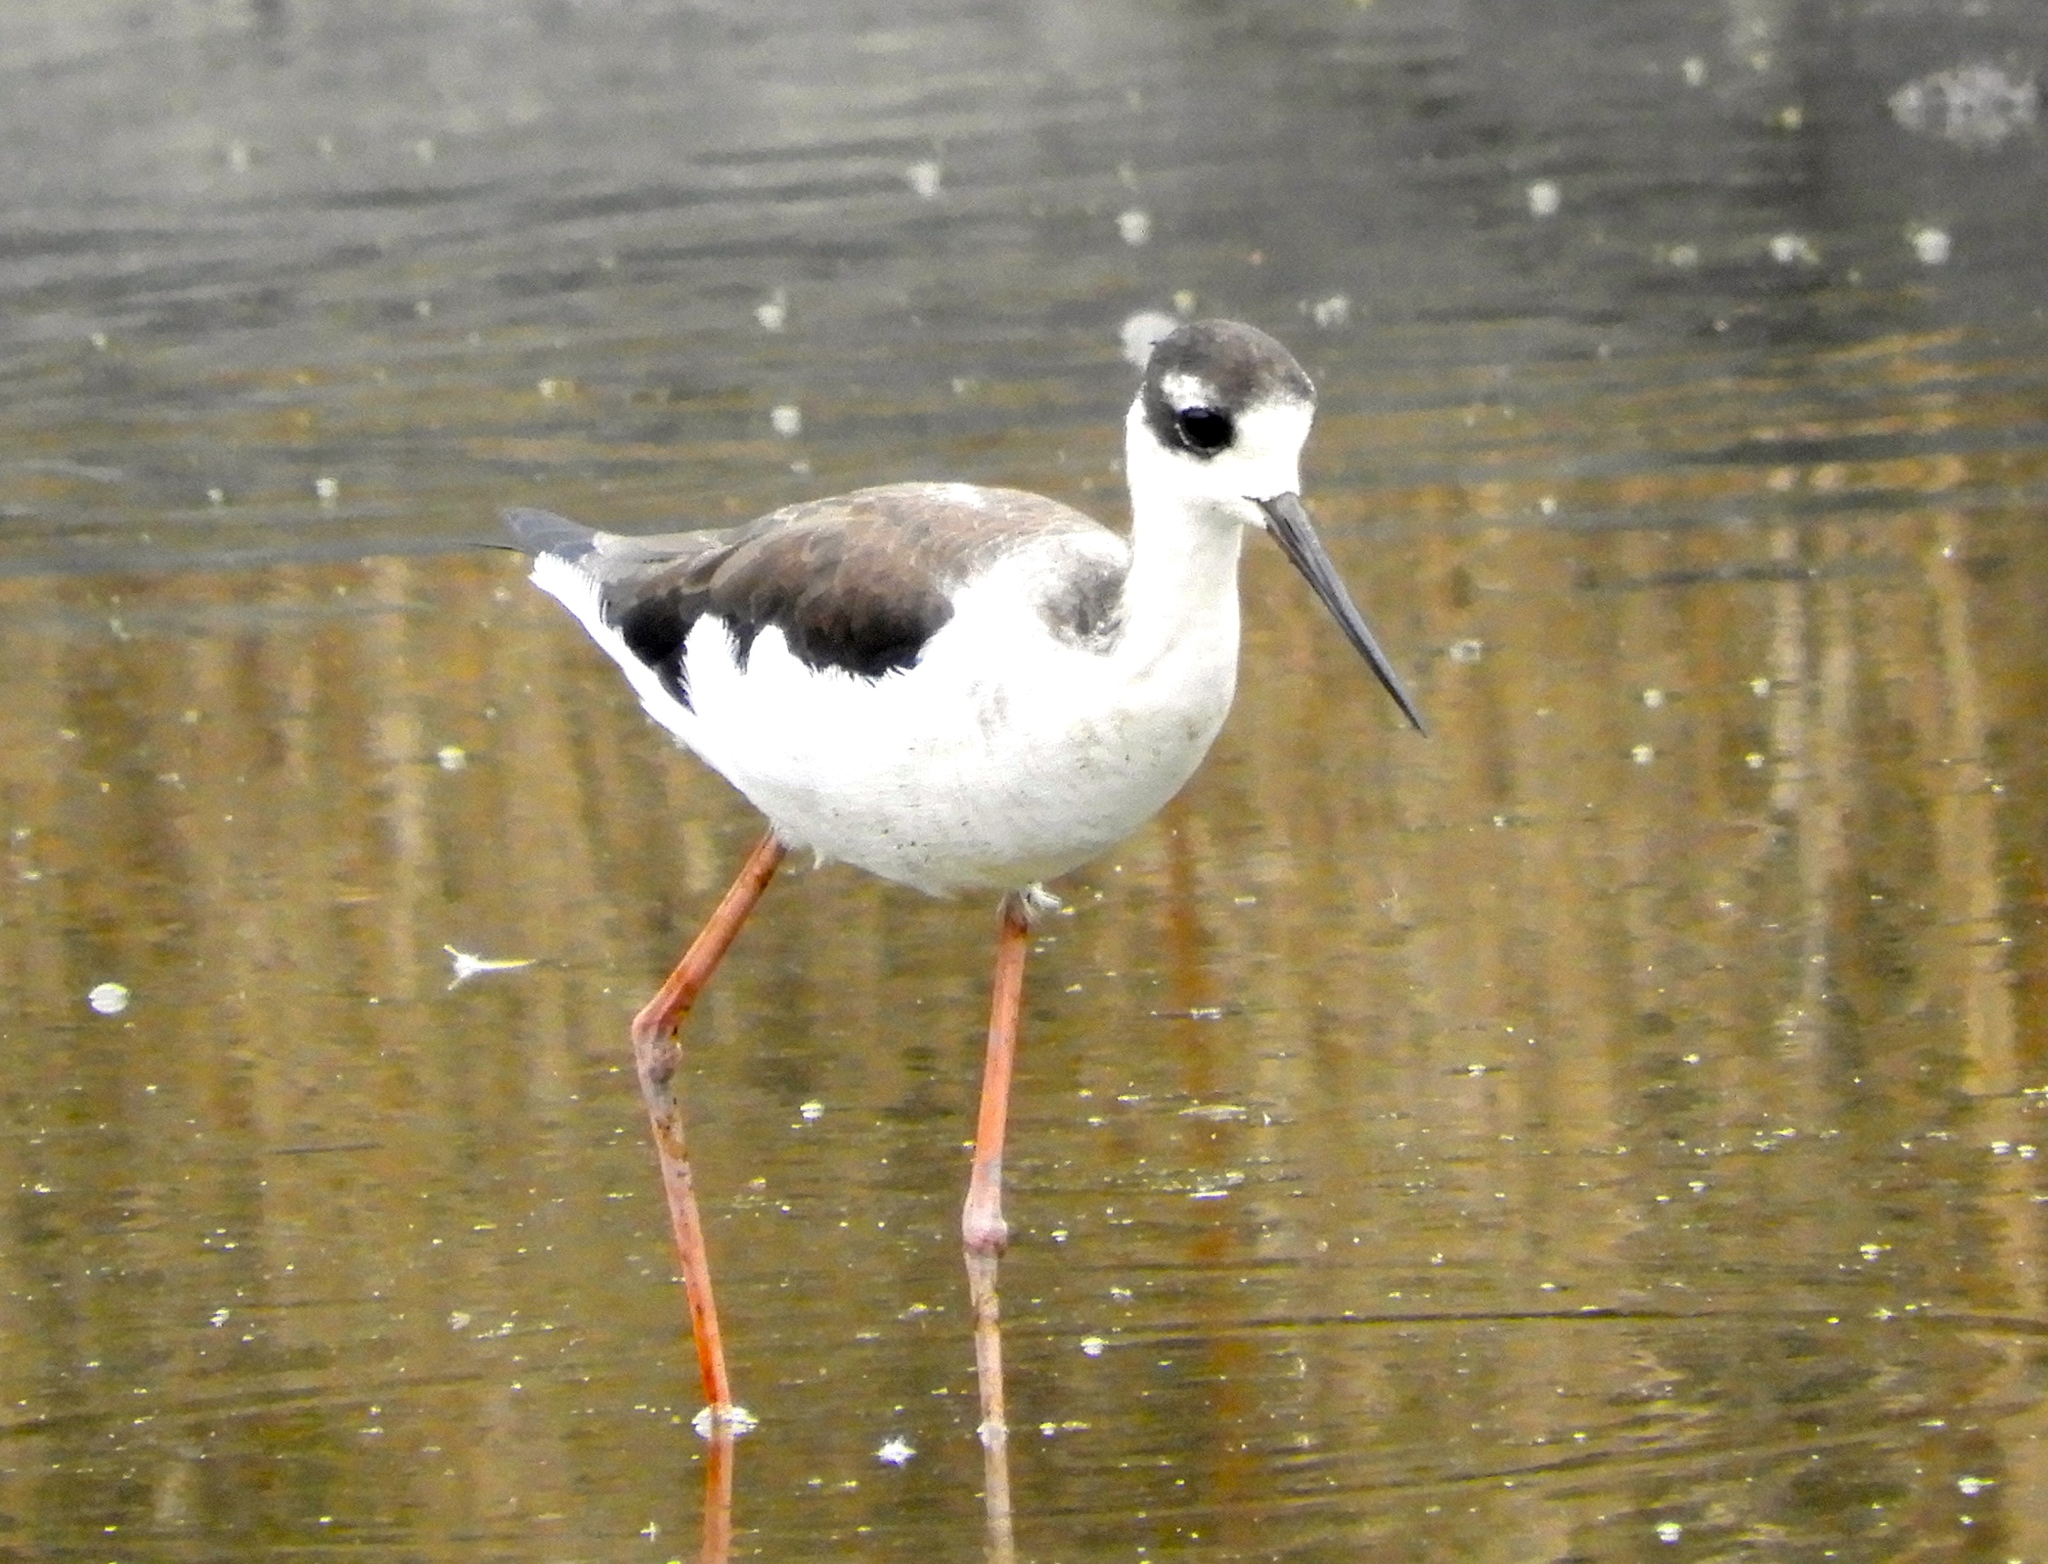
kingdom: Animalia
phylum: Chordata
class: Aves
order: Charadriiformes
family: Recurvirostridae
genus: Himantopus
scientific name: Himantopus mexicanus
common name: Black-necked stilt
